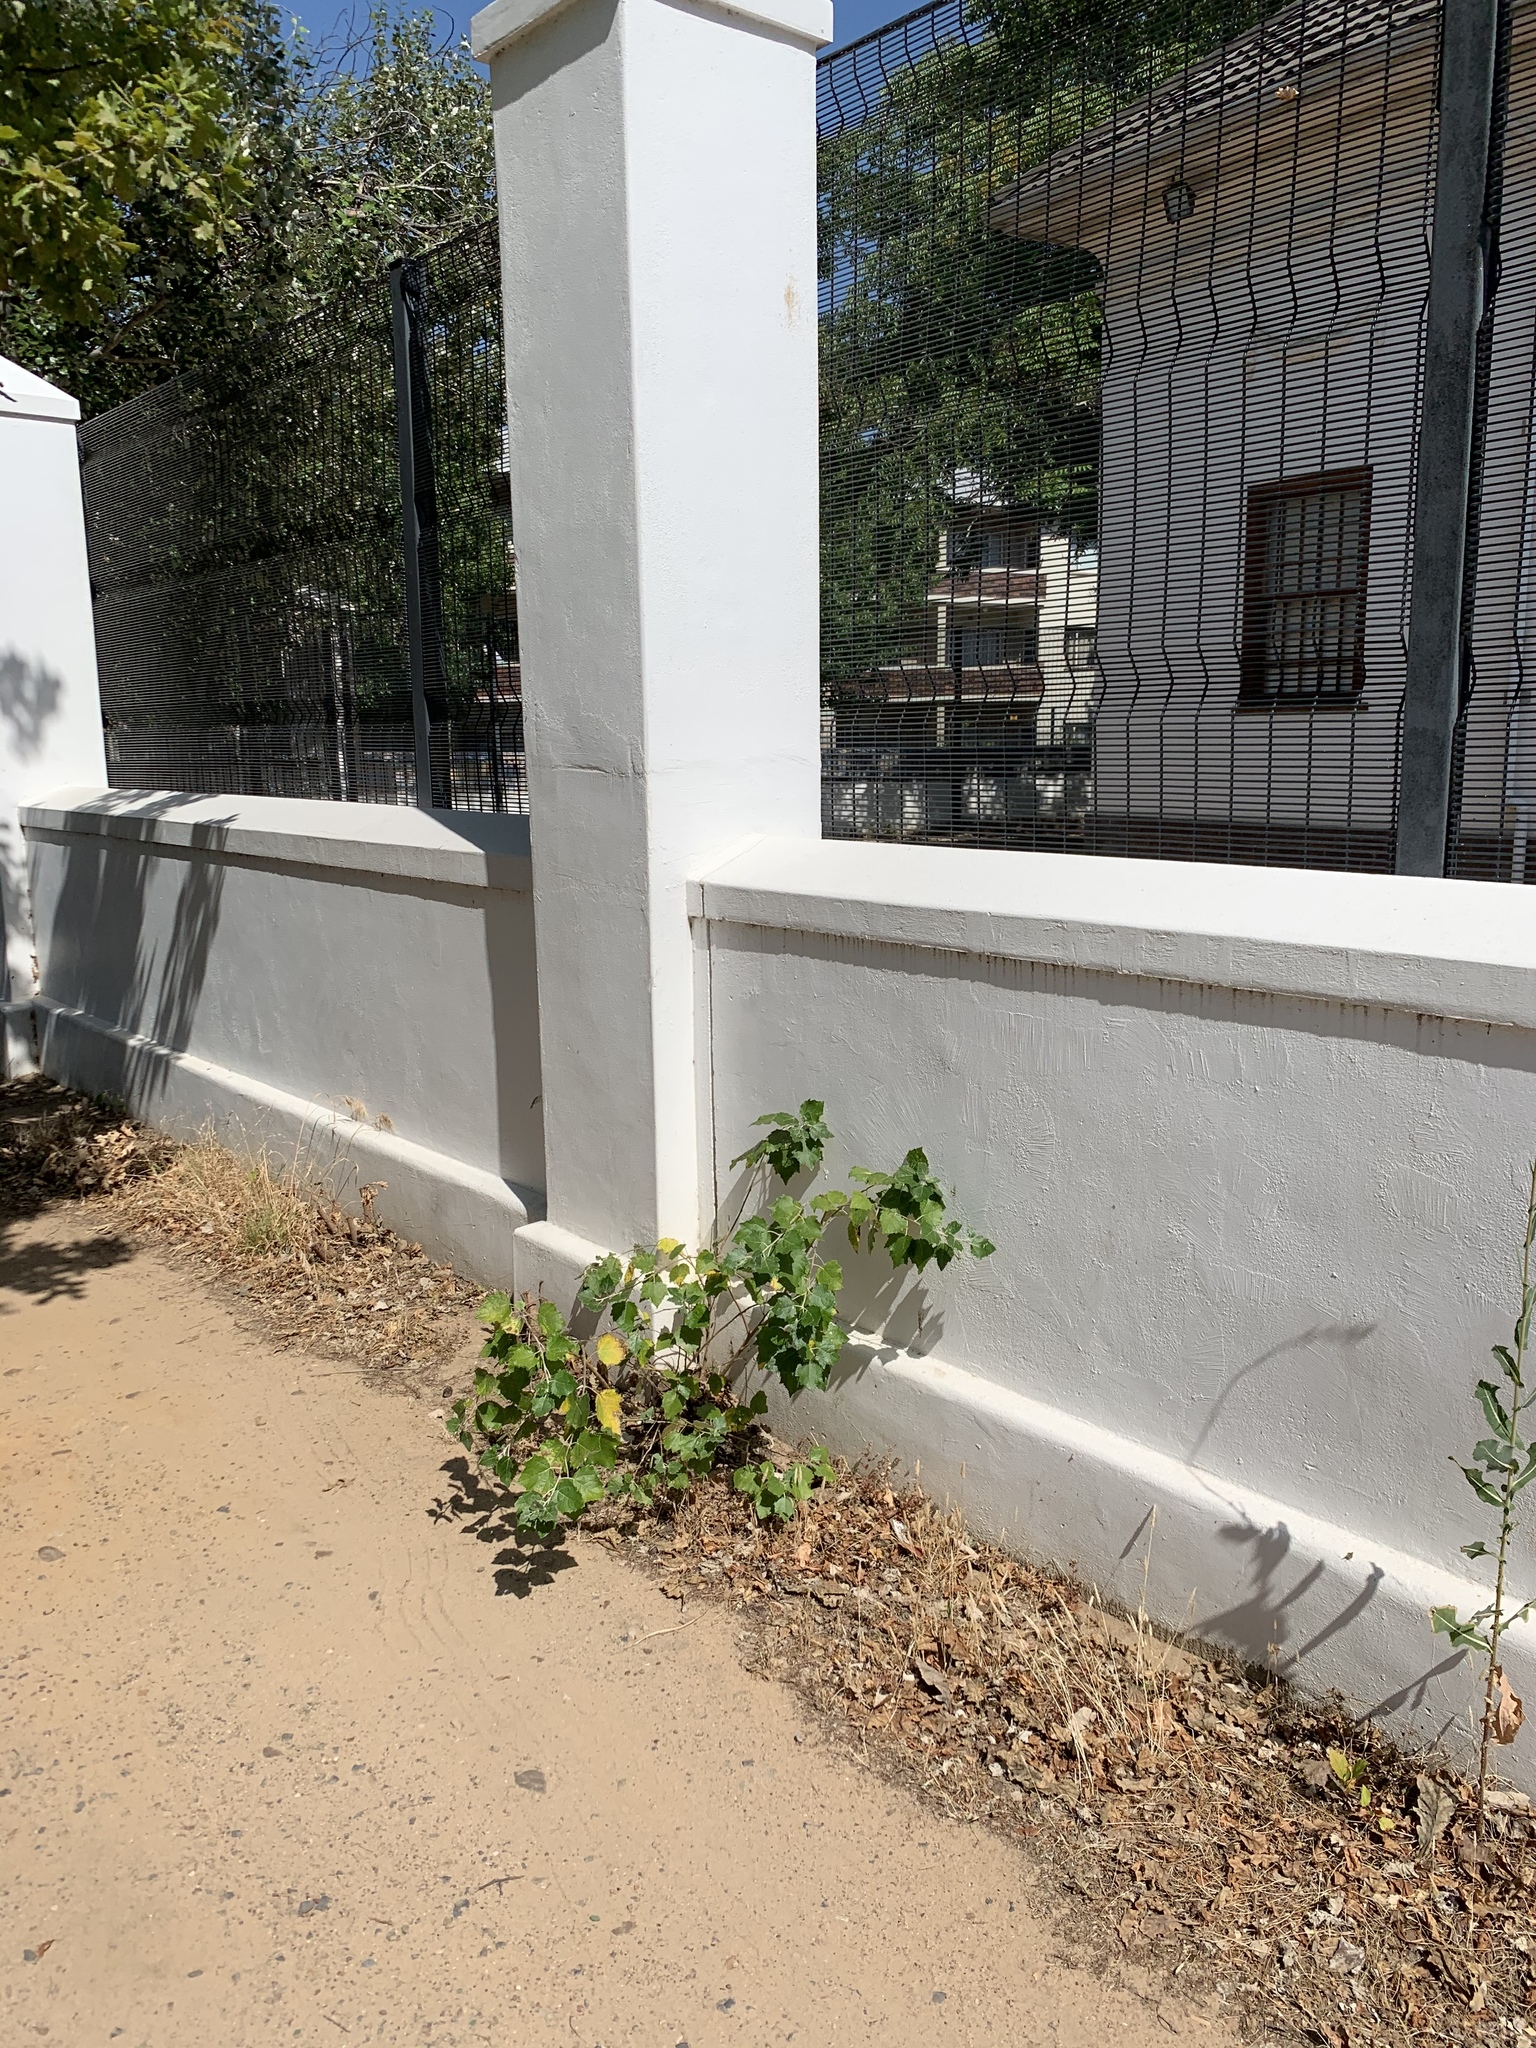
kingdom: Plantae
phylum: Tracheophyta
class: Magnoliopsida
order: Malpighiales
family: Salicaceae
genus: Populus
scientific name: Populus canescens
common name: Gray poplar
